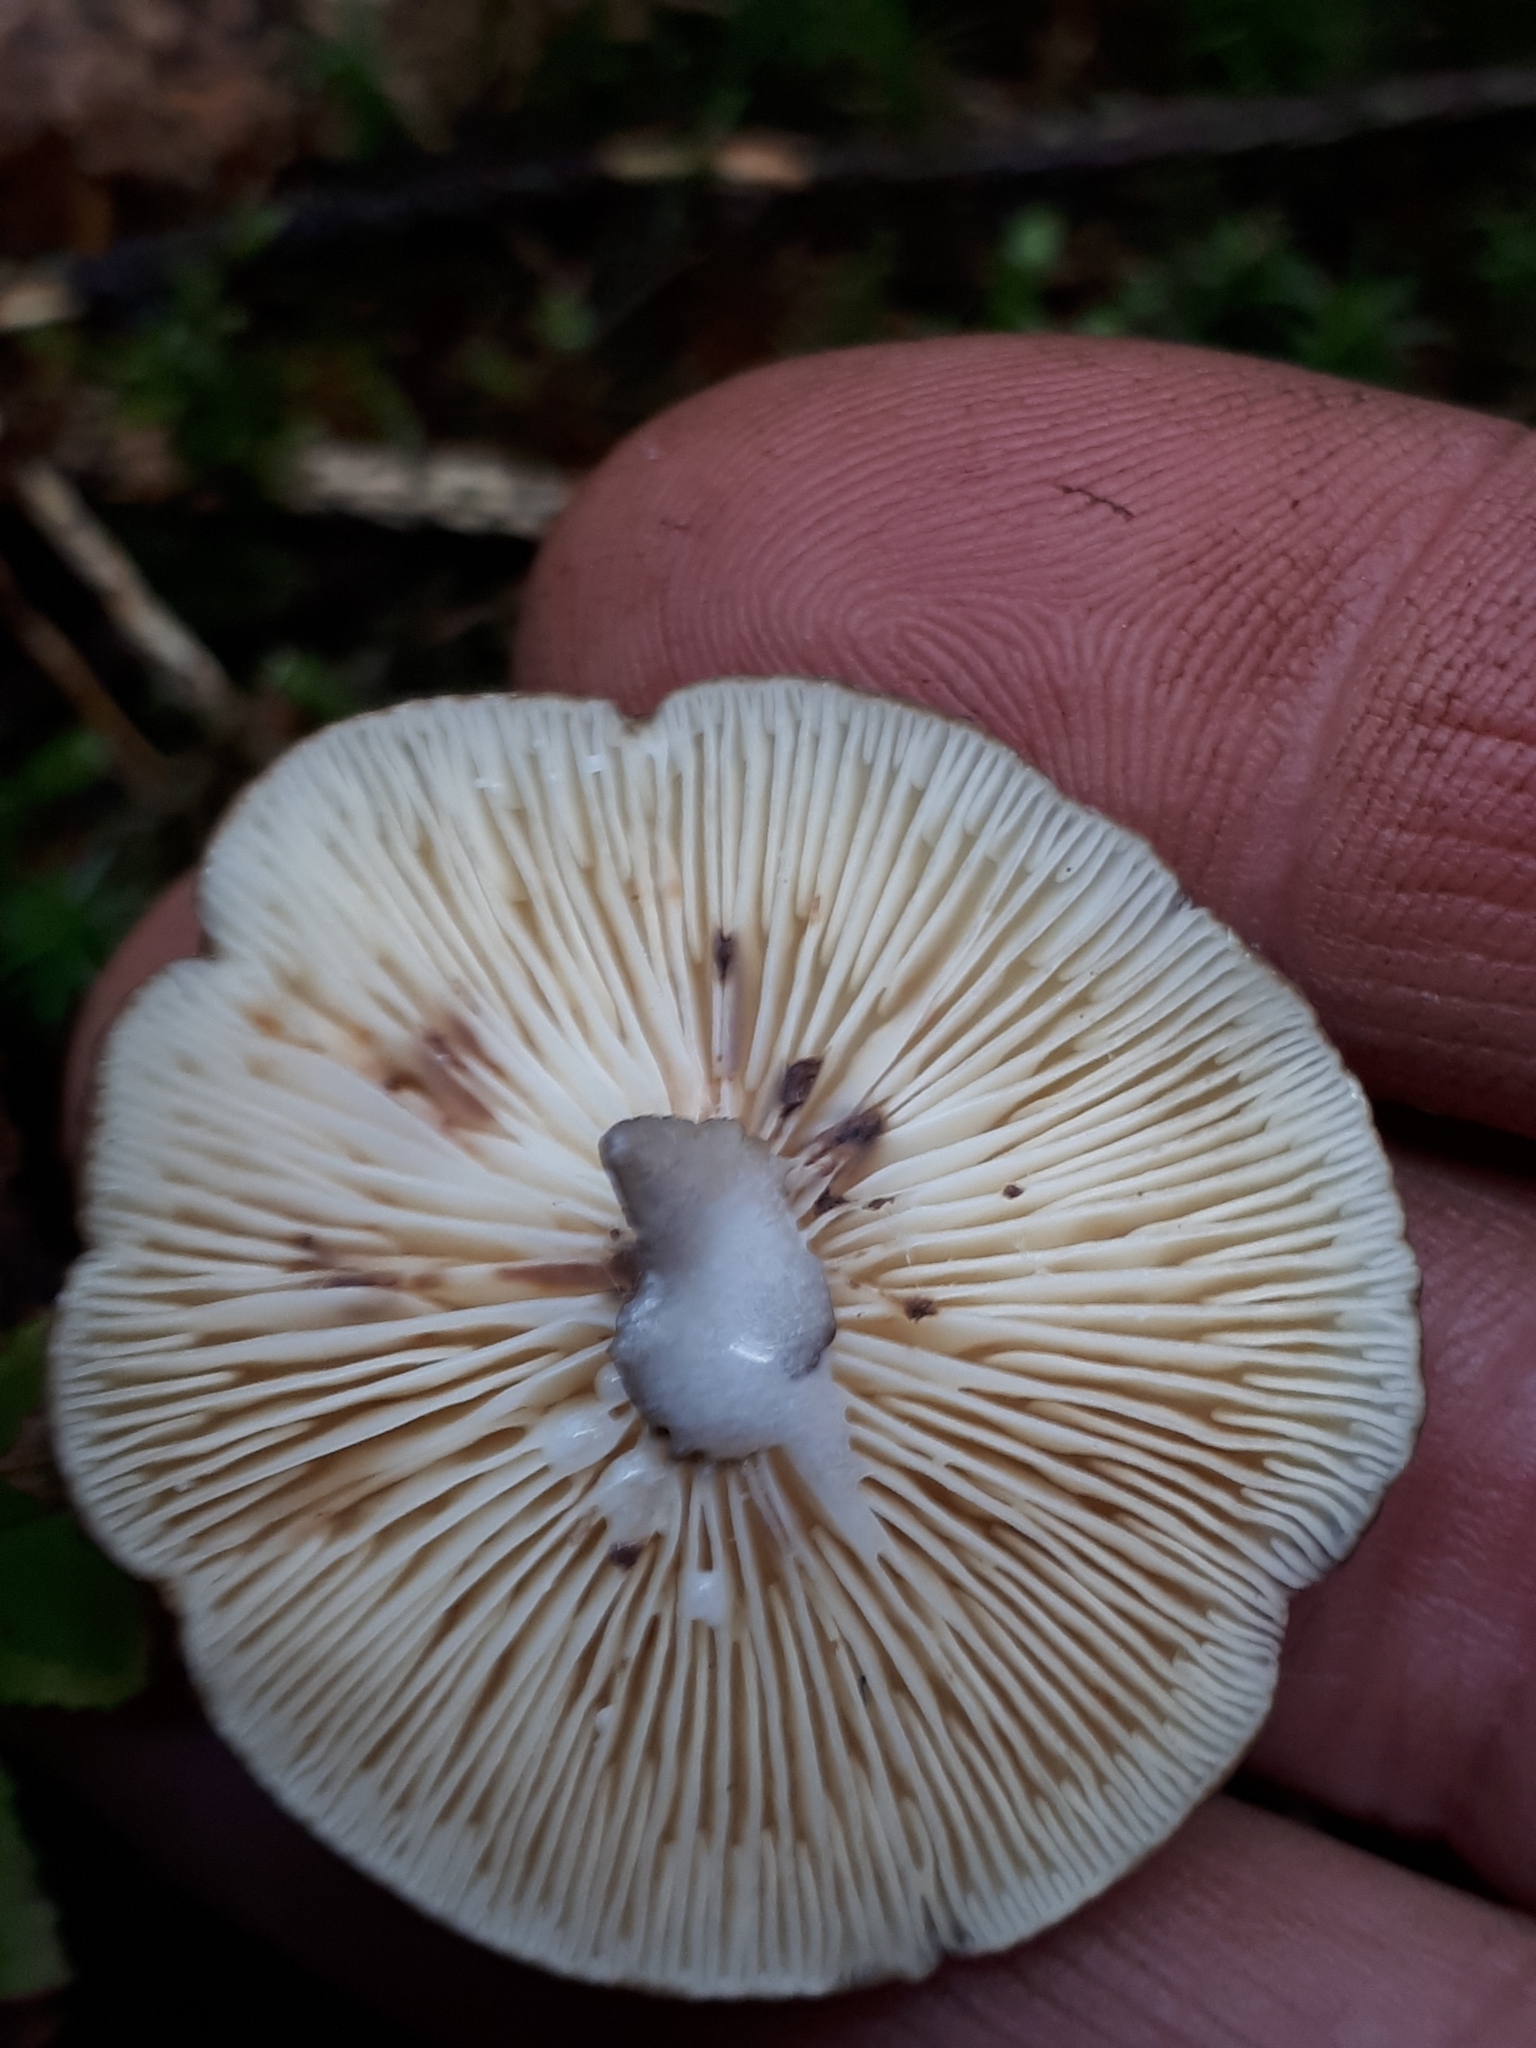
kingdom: Fungi
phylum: Basidiomycota
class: Agaricomycetes
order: Russulales
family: Russulaceae
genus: Lactarius
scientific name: Lactarius lignyotus
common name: Velvet milkcap
